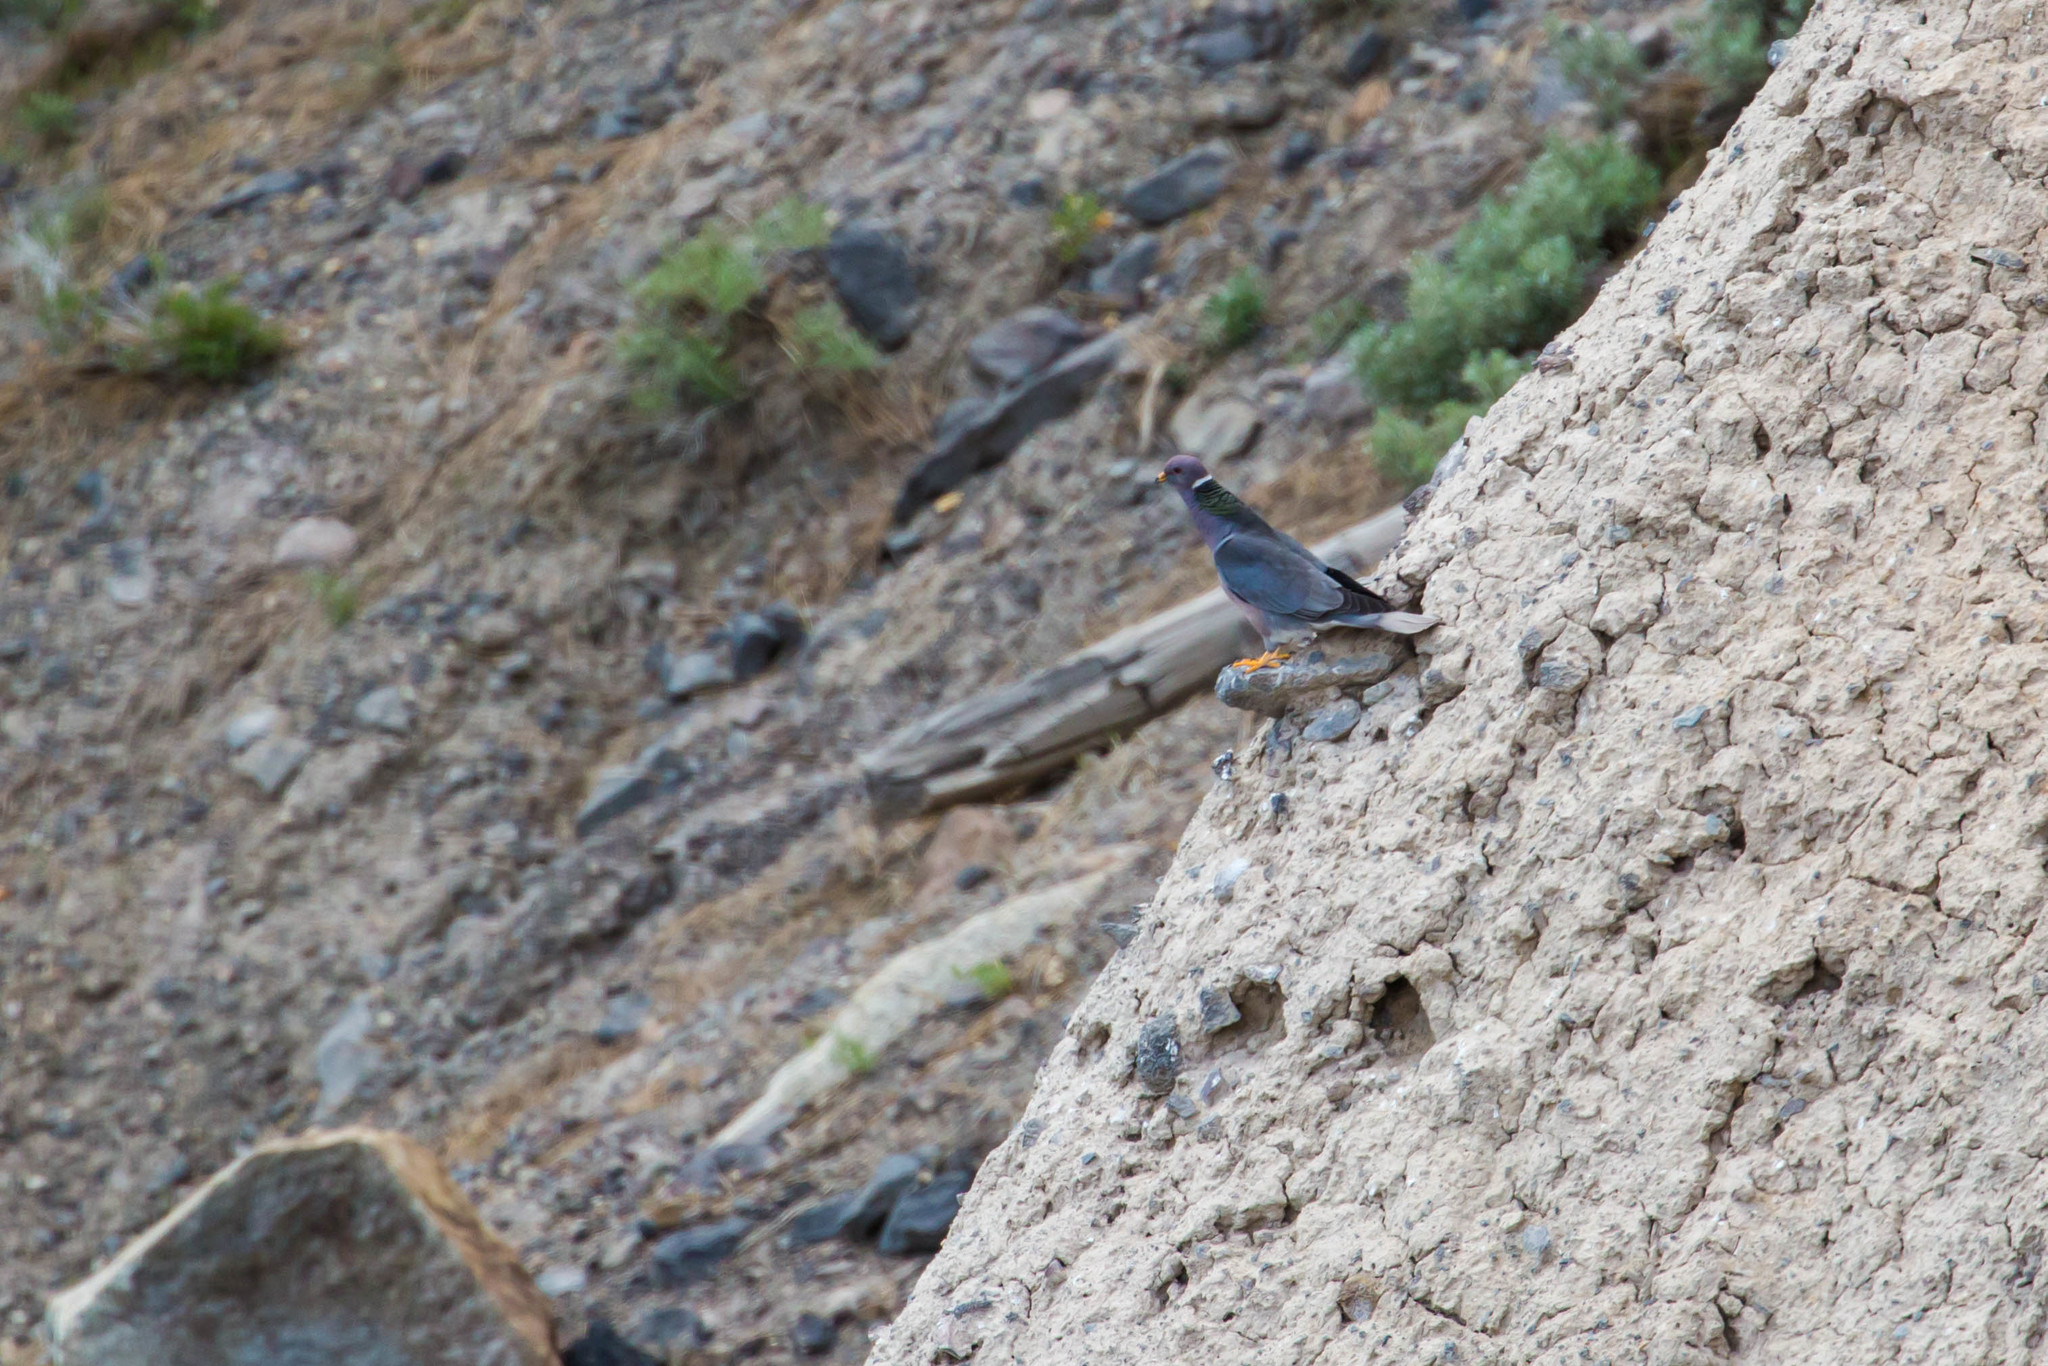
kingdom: Animalia
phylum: Chordata
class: Aves
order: Columbiformes
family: Columbidae
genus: Patagioenas
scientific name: Patagioenas fasciata
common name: Band-tailed pigeon
